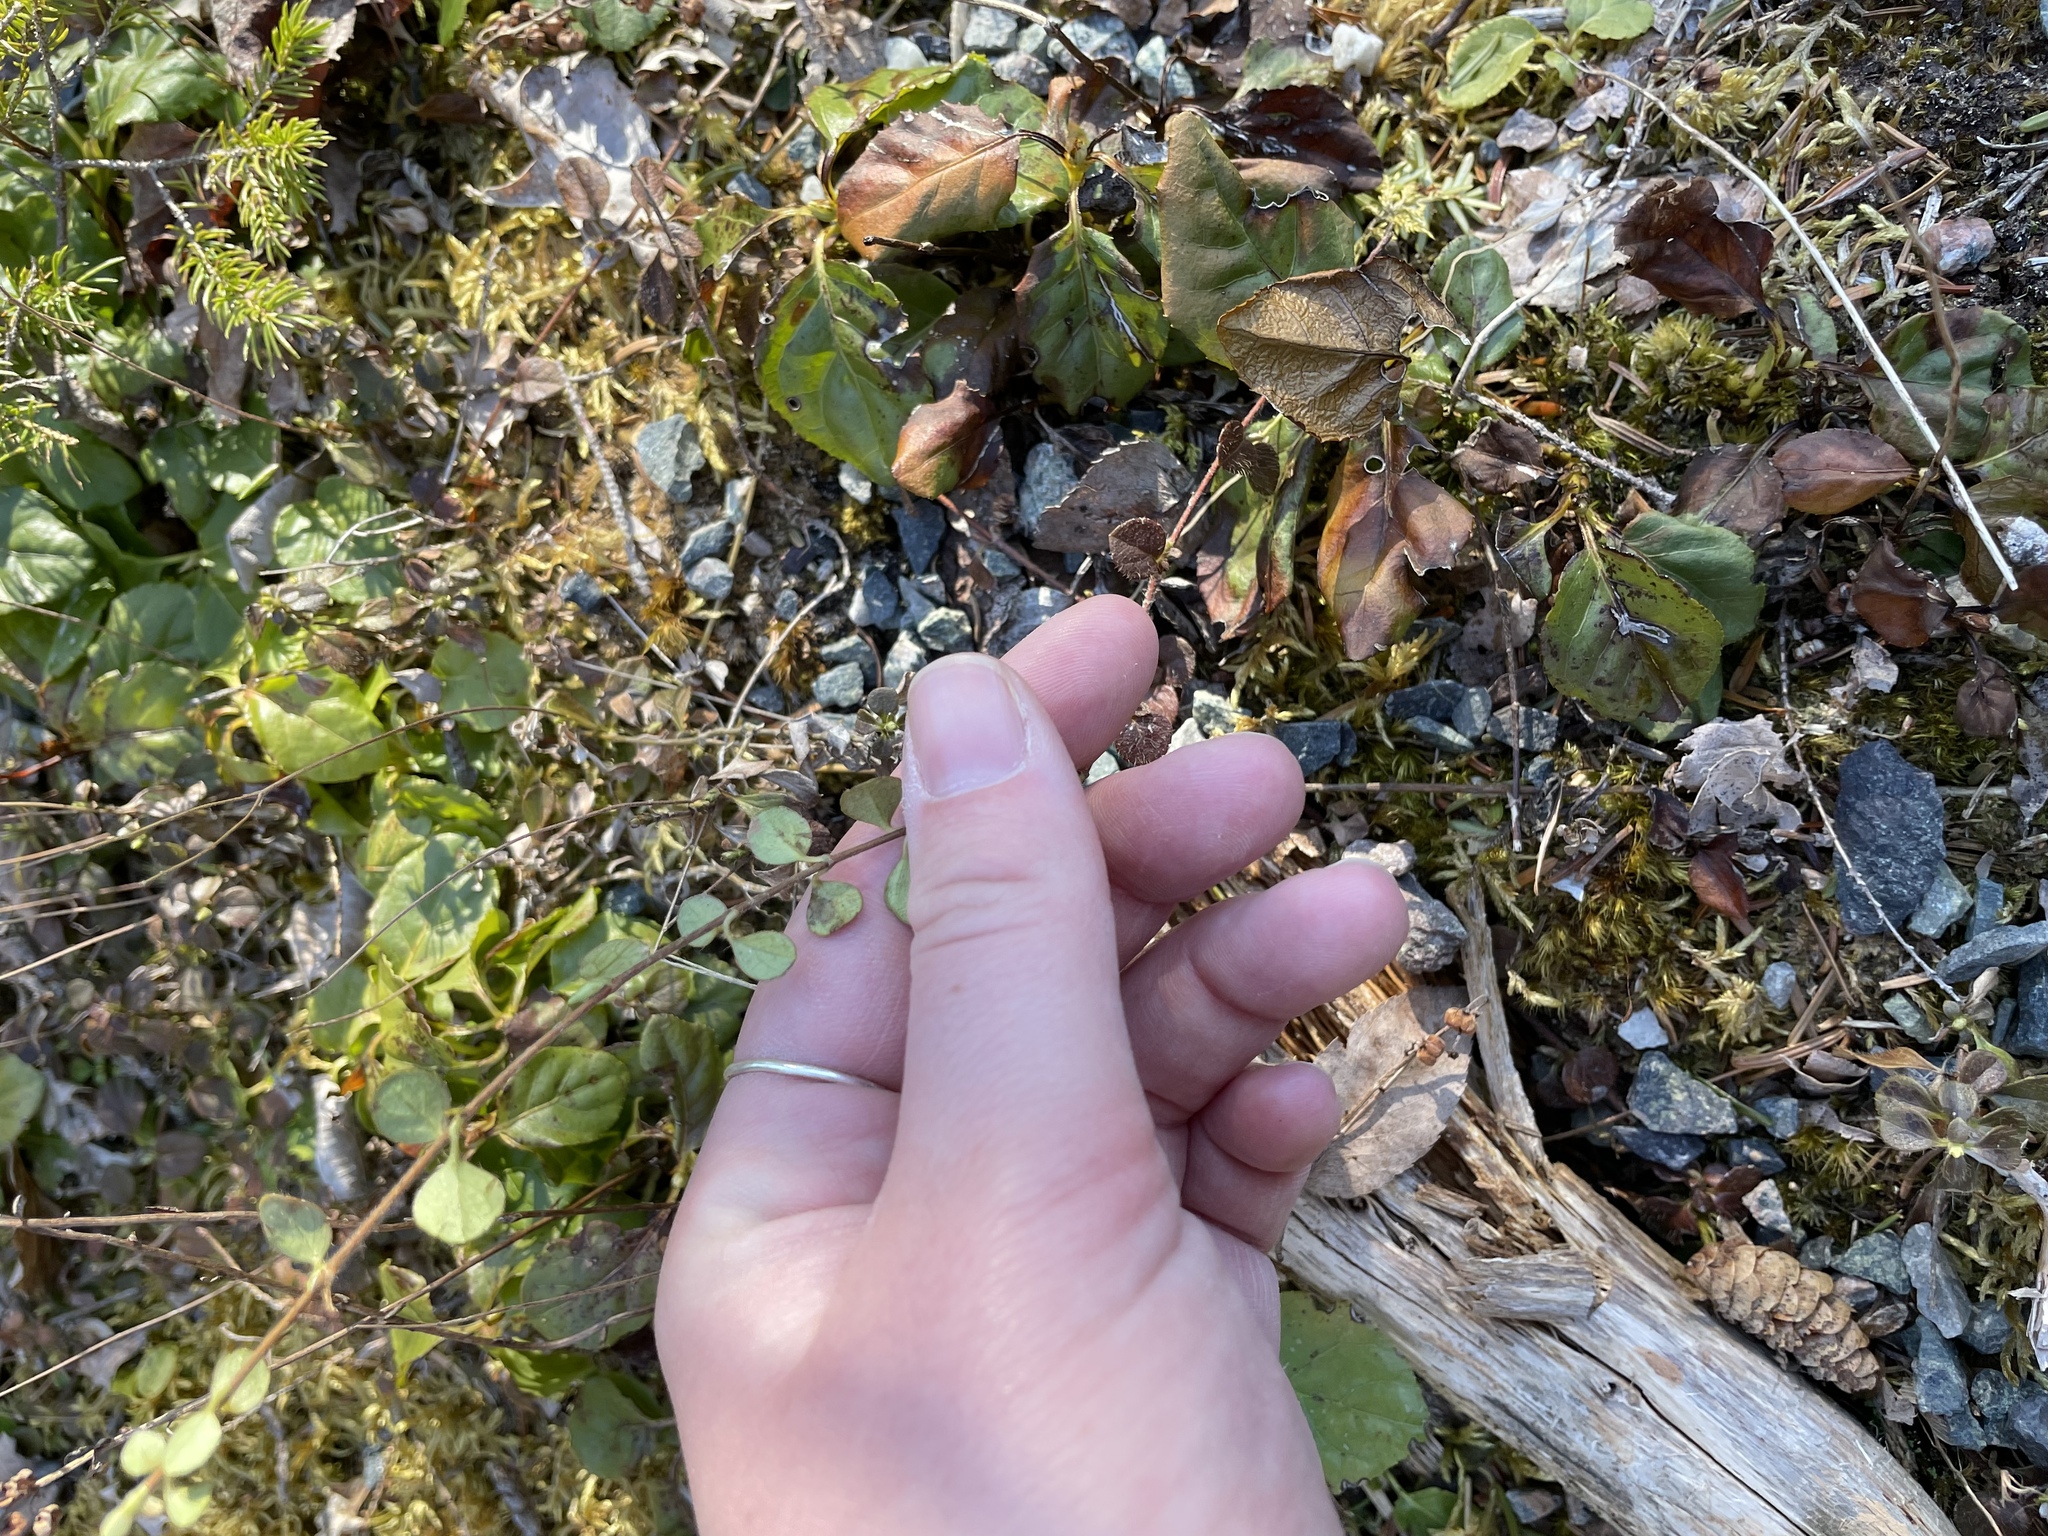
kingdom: Plantae
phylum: Tracheophyta
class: Magnoliopsida
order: Dipsacales
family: Caprifoliaceae
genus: Linnaea
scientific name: Linnaea borealis
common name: Twinflower
